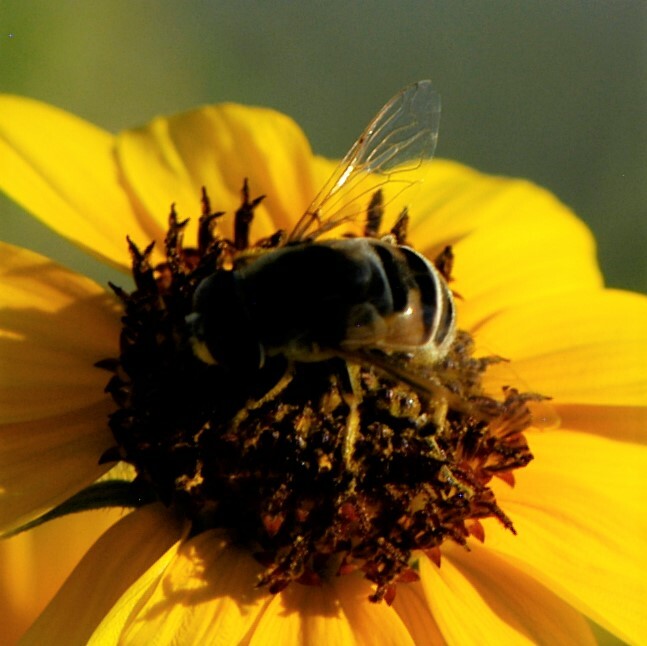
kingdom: Animalia
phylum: Arthropoda
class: Insecta
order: Diptera
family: Syrphidae
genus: Eristalis
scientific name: Eristalis stipator
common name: Yellow-shouldered drone fly
